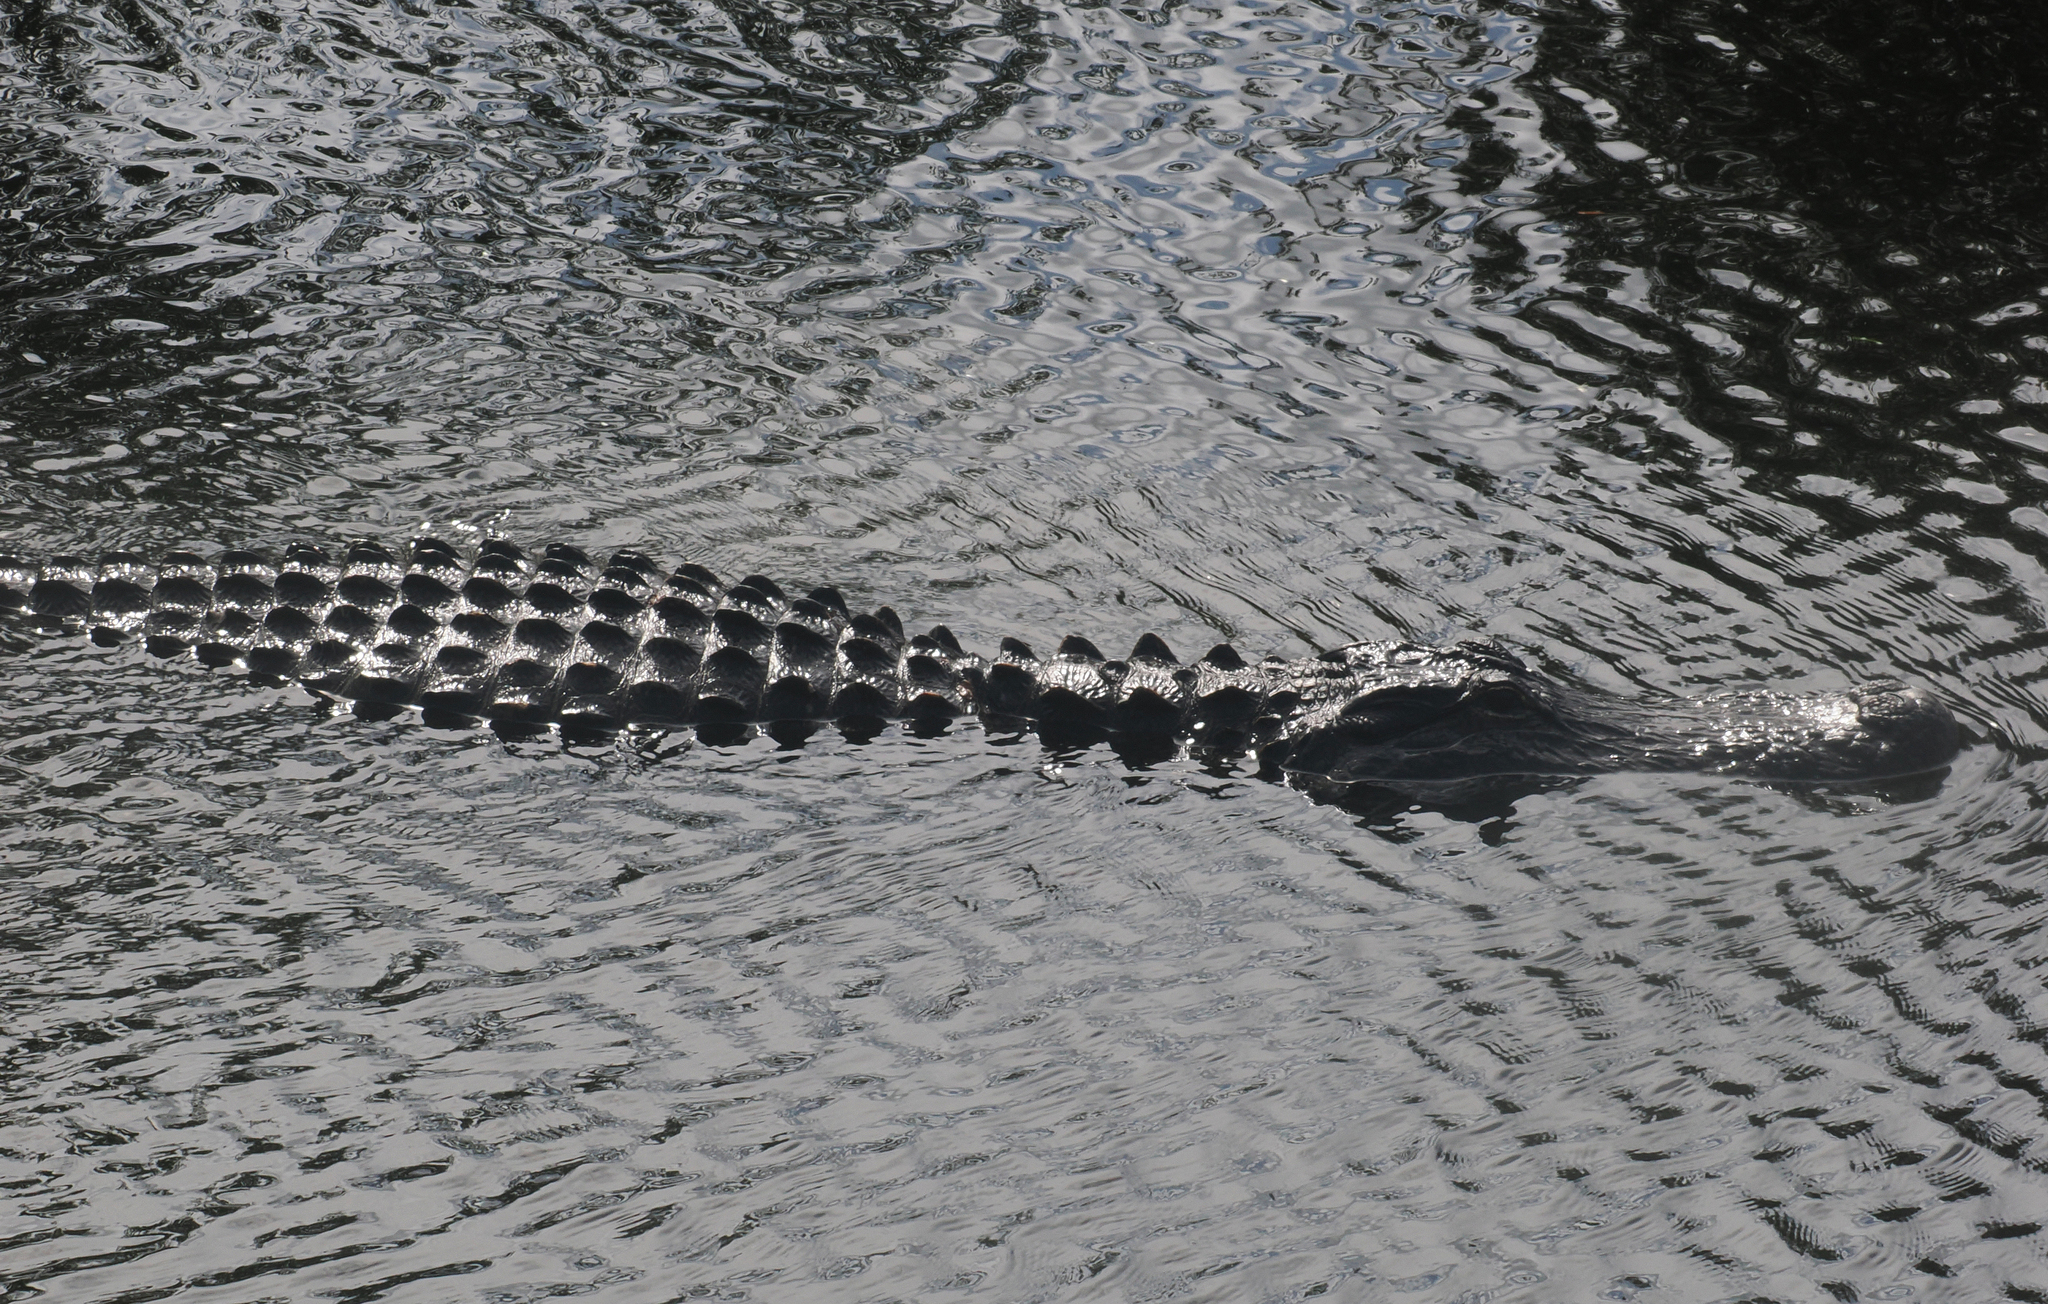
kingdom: Animalia
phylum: Chordata
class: Crocodylia
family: Alligatoridae
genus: Alligator
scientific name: Alligator mississippiensis
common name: American alligator
